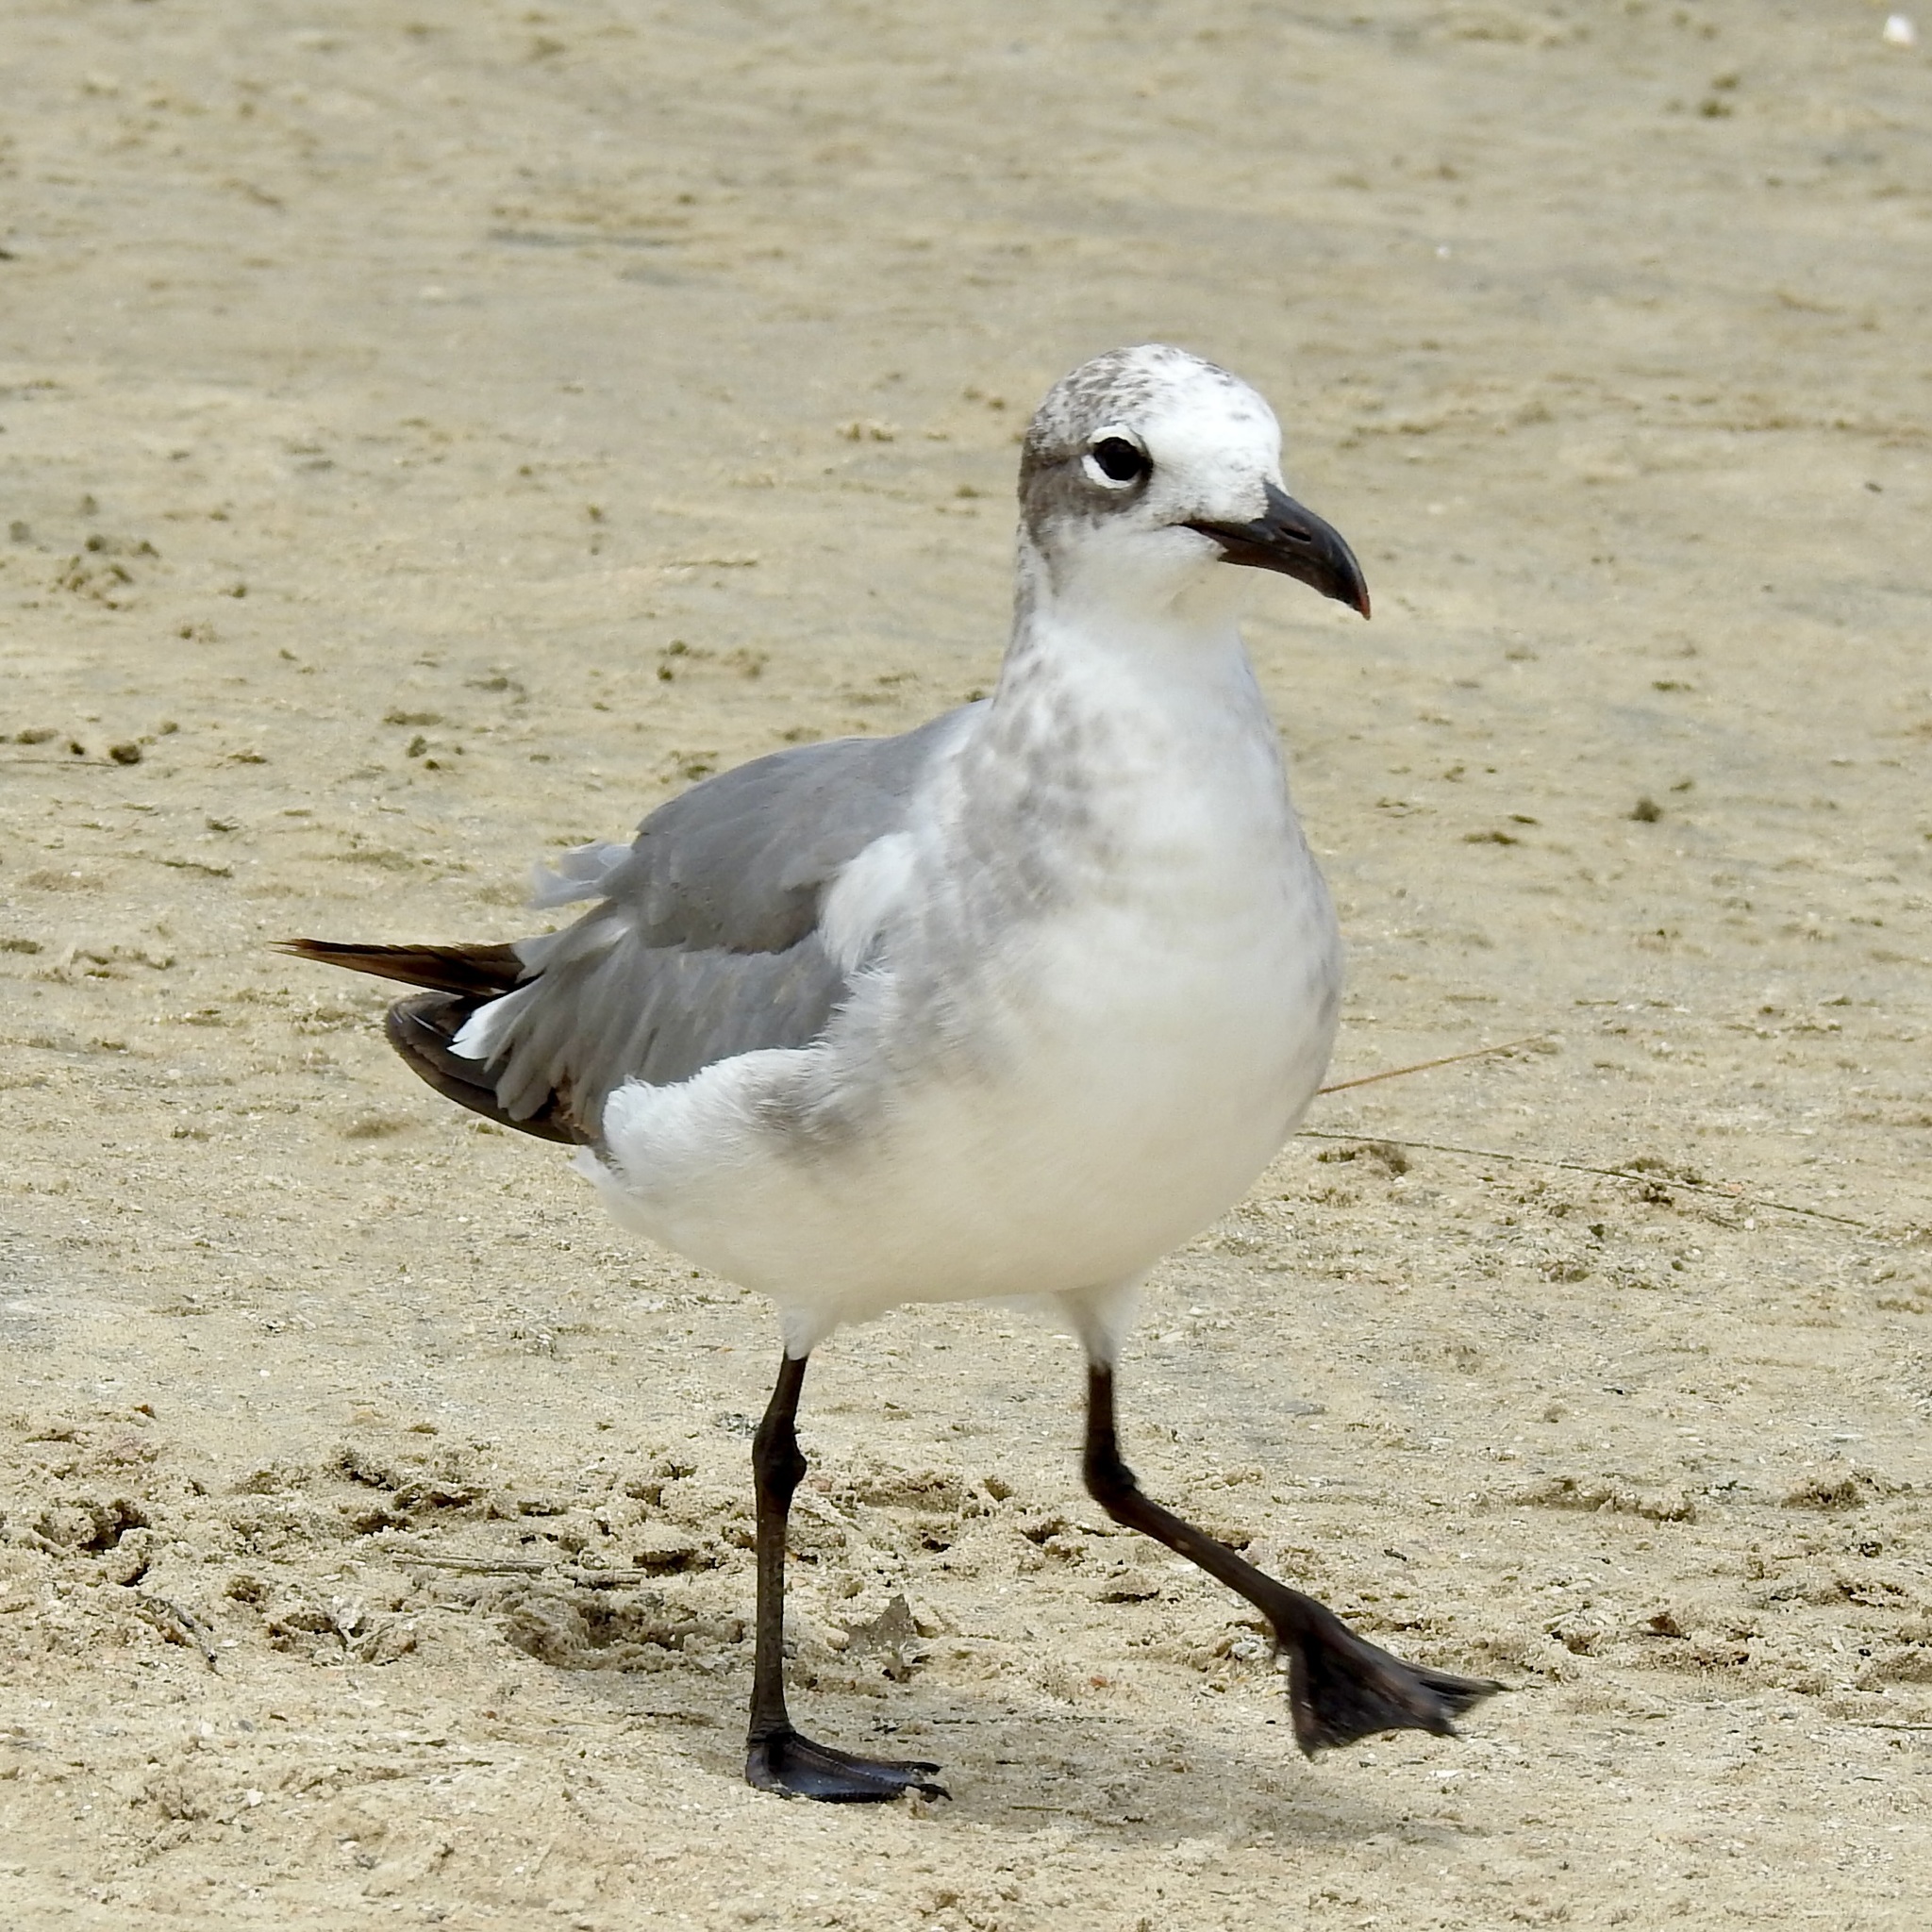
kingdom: Animalia
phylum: Chordata
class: Aves
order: Charadriiformes
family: Laridae
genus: Leucophaeus
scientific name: Leucophaeus atricilla
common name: Laughing gull
